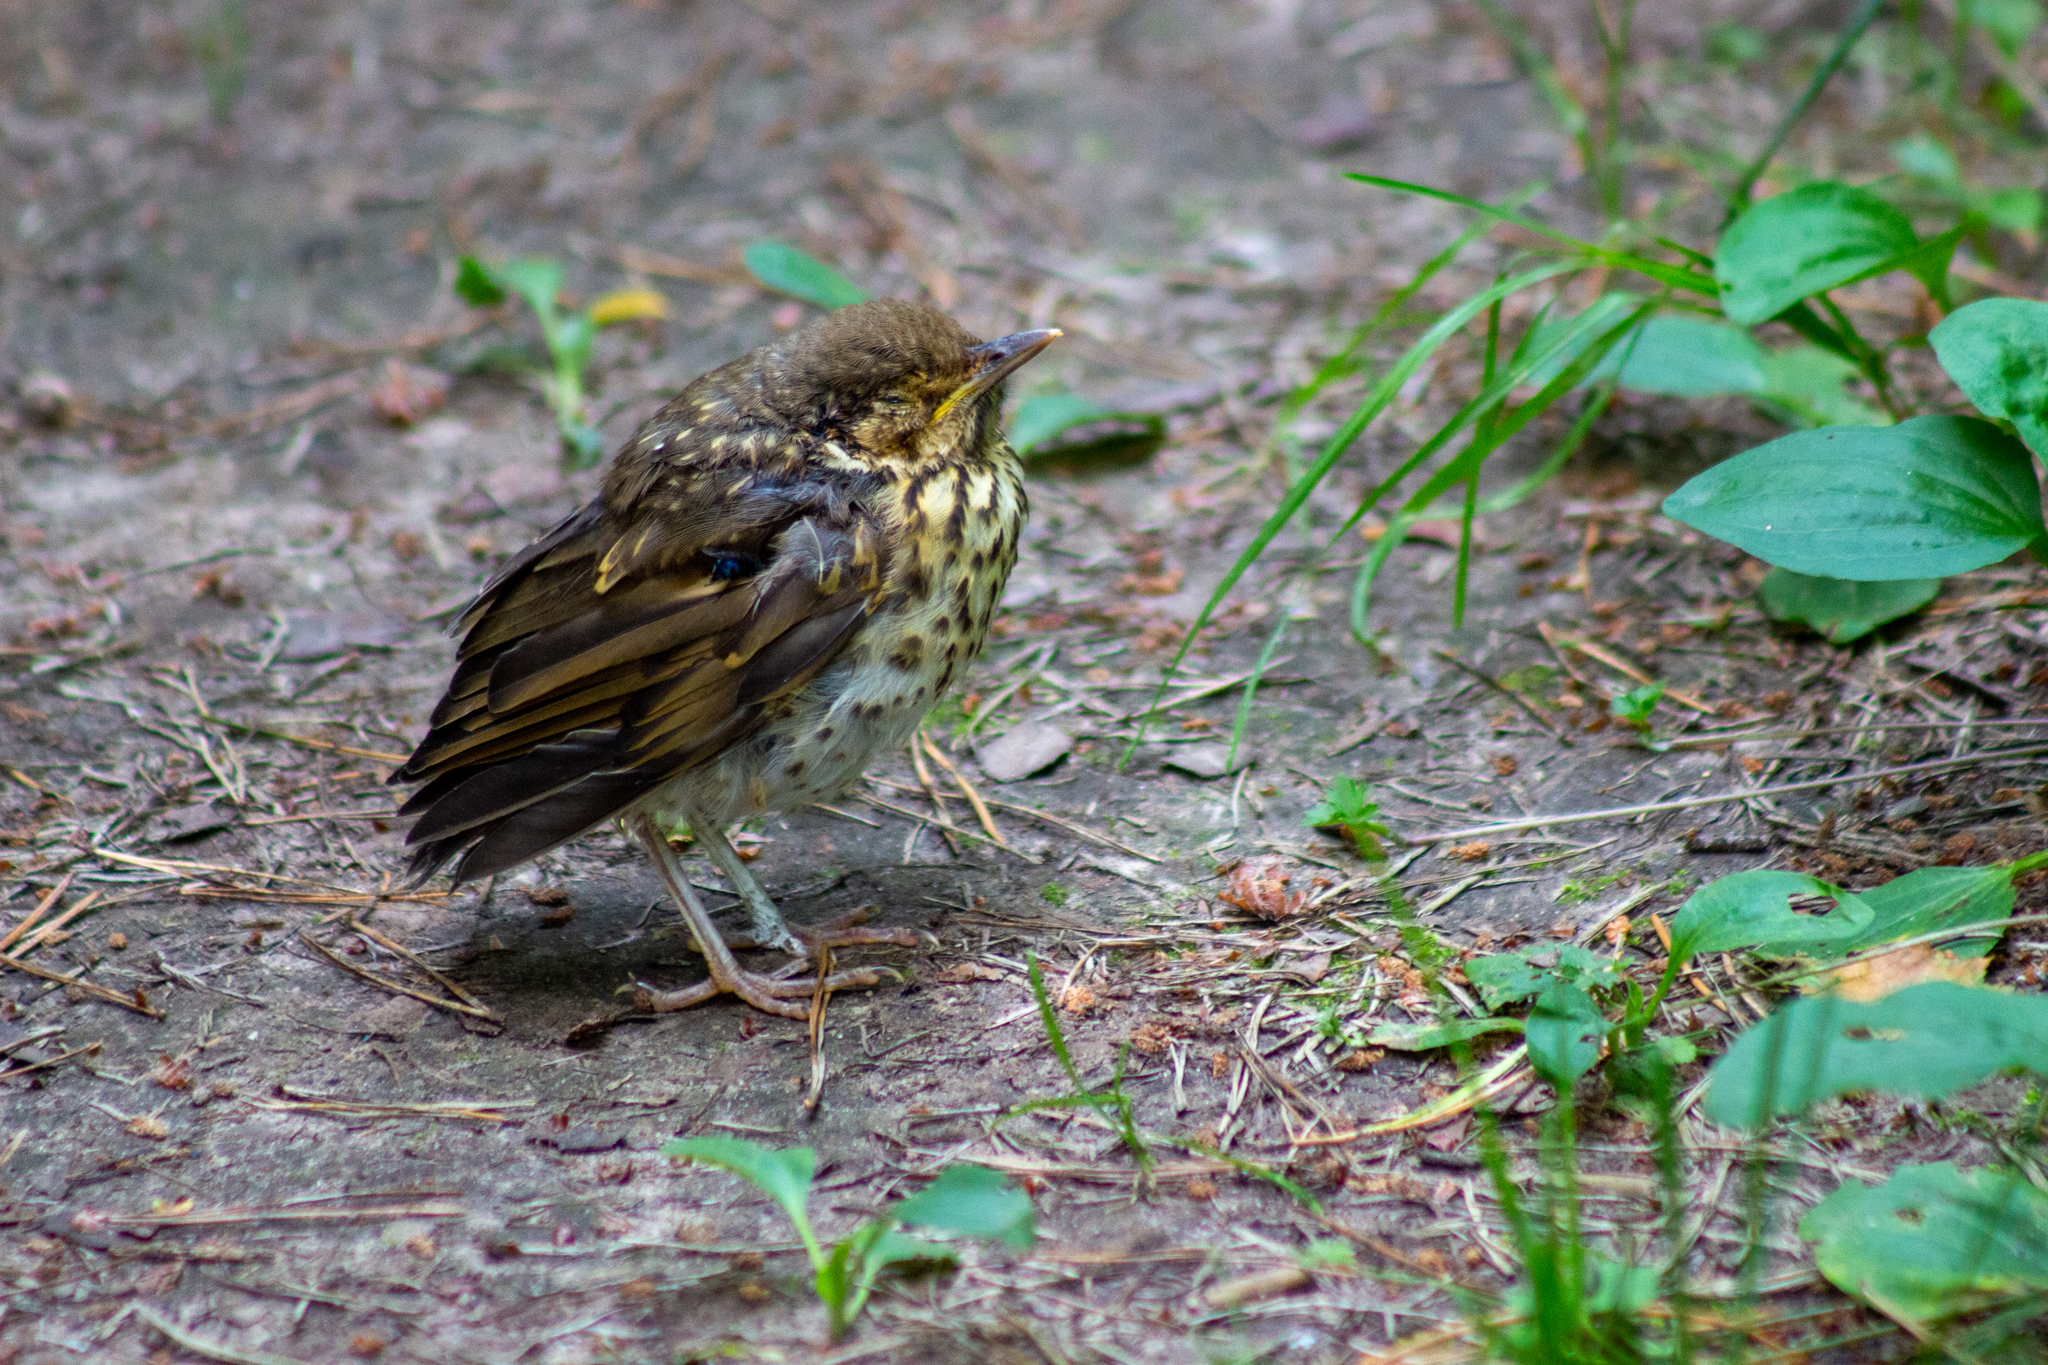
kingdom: Animalia
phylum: Chordata
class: Aves
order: Passeriformes
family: Turdidae
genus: Turdus
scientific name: Turdus philomelos
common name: Song thrush
